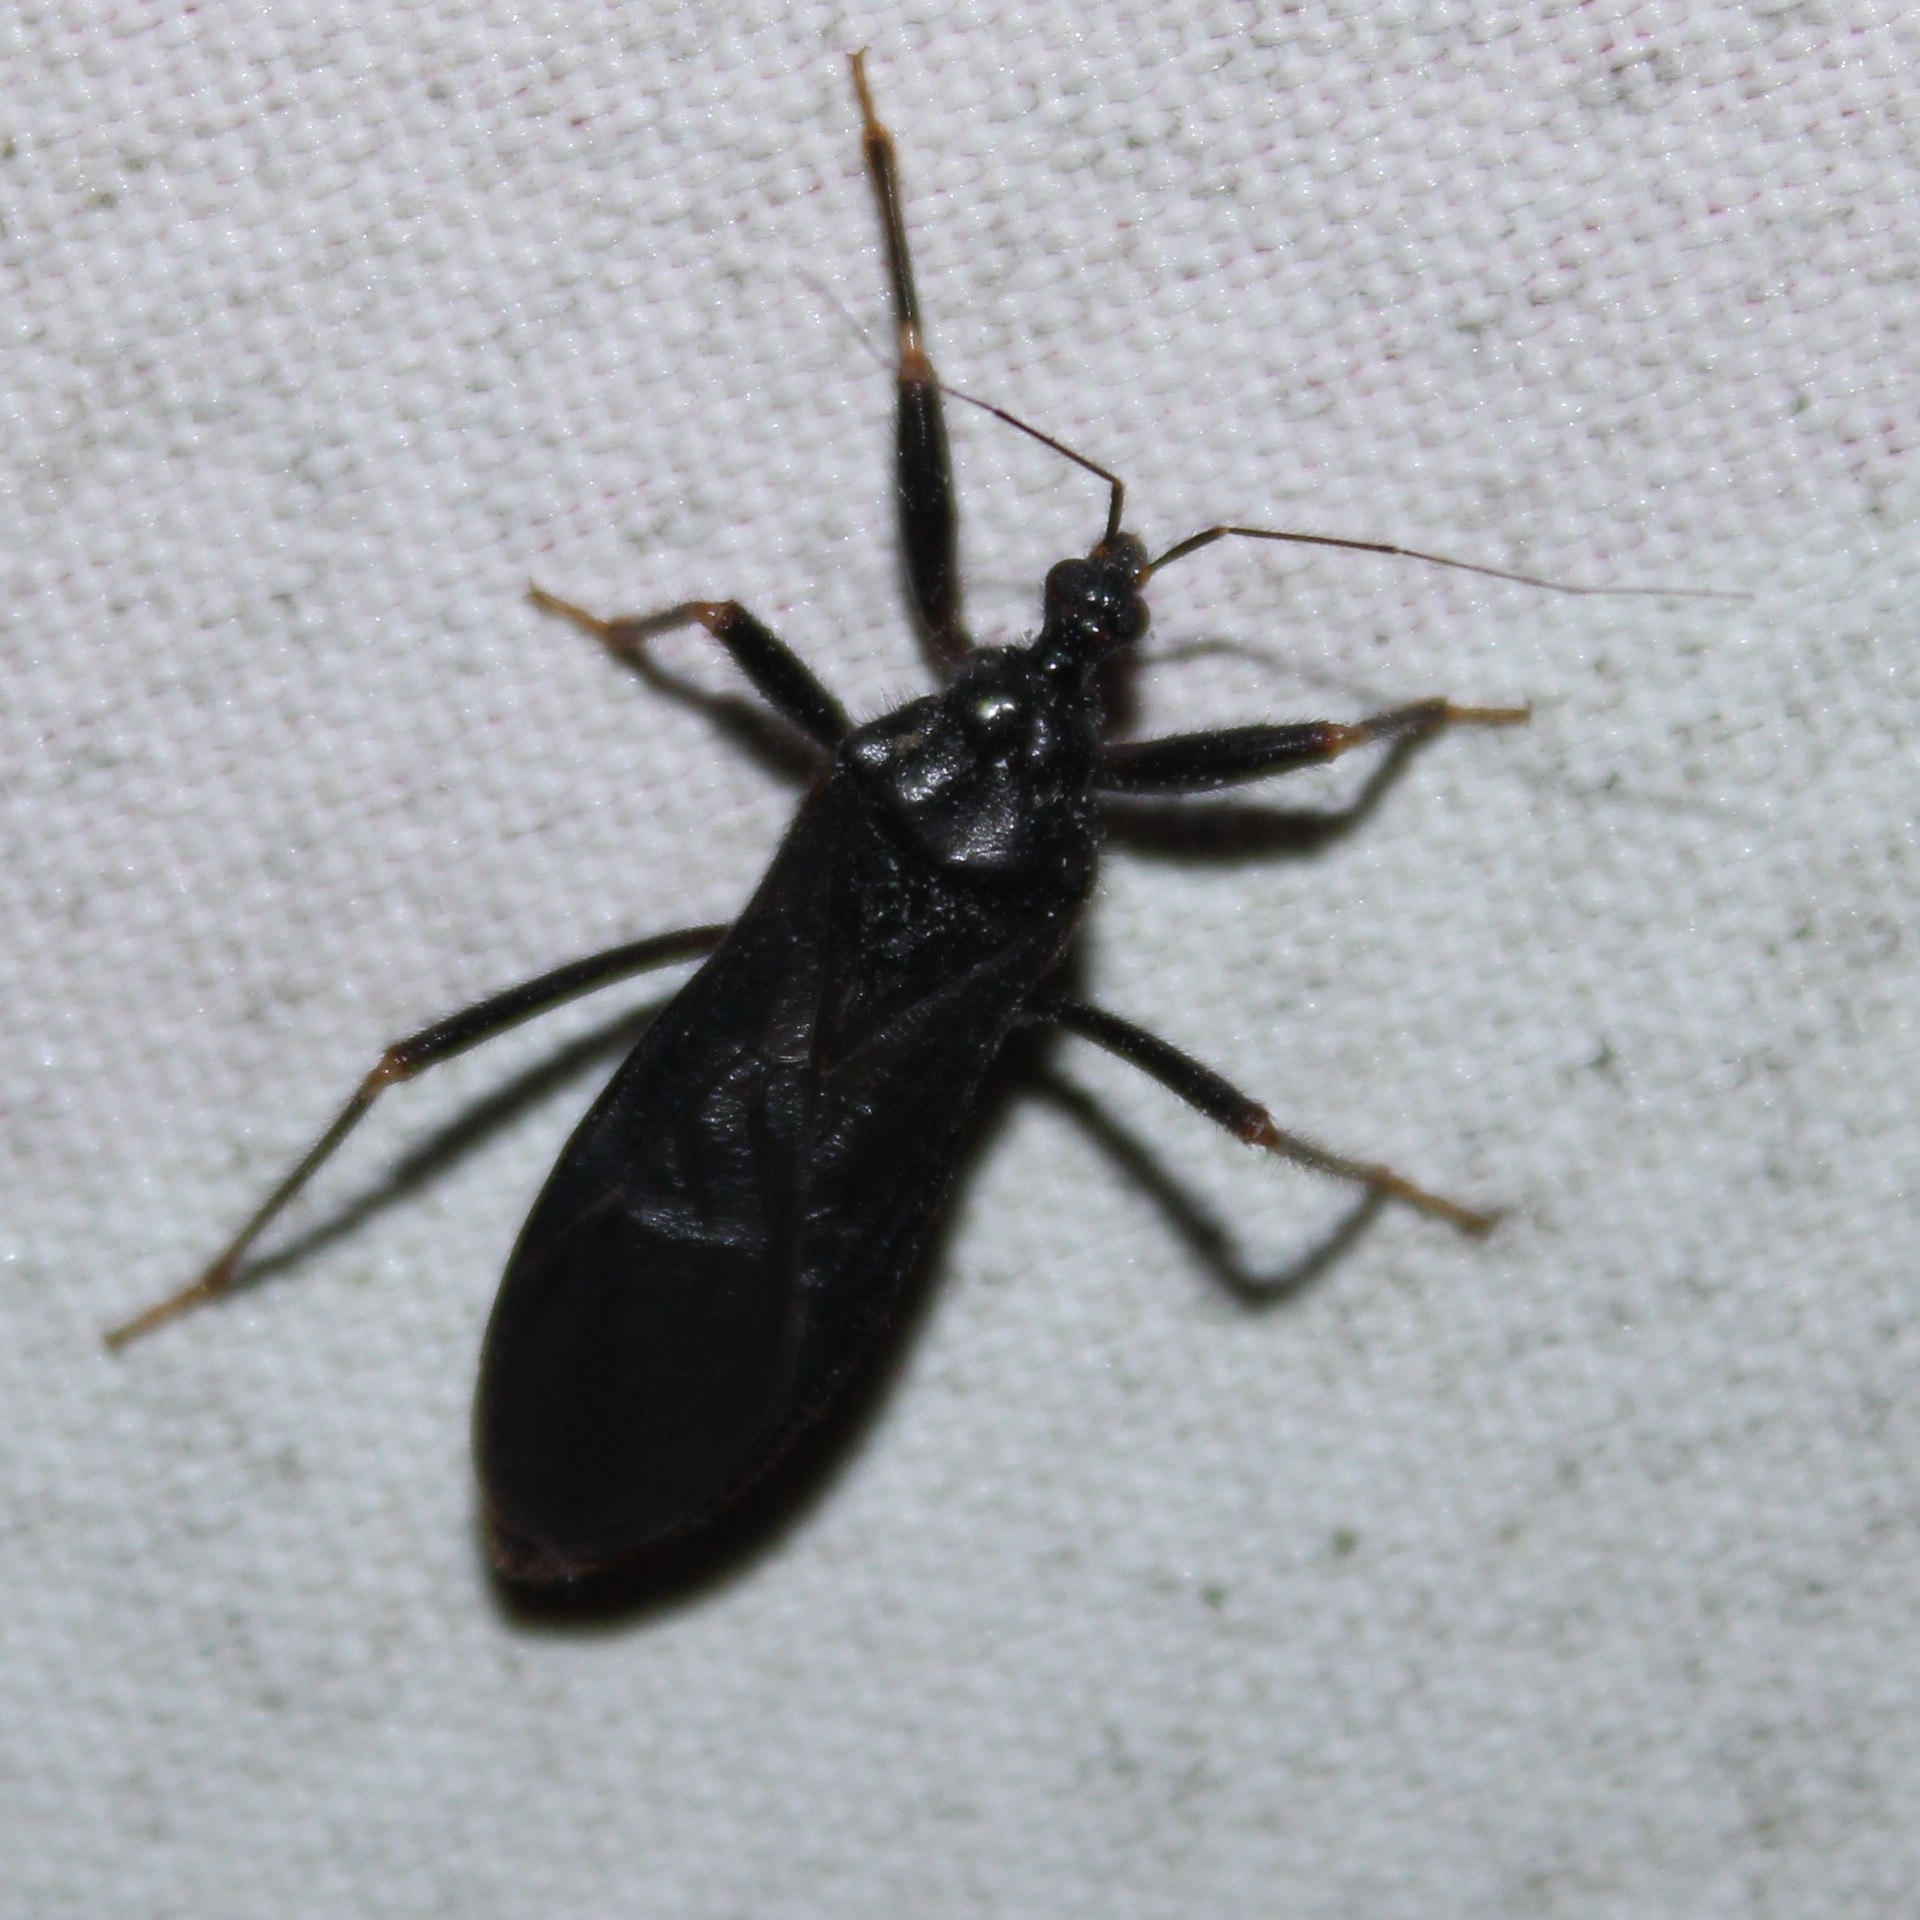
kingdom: Animalia
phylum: Arthropoda
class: Insecta
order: Hemiptera
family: Reduviidae
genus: Reduvius
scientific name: Reduvius personatus
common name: Masked hunter
